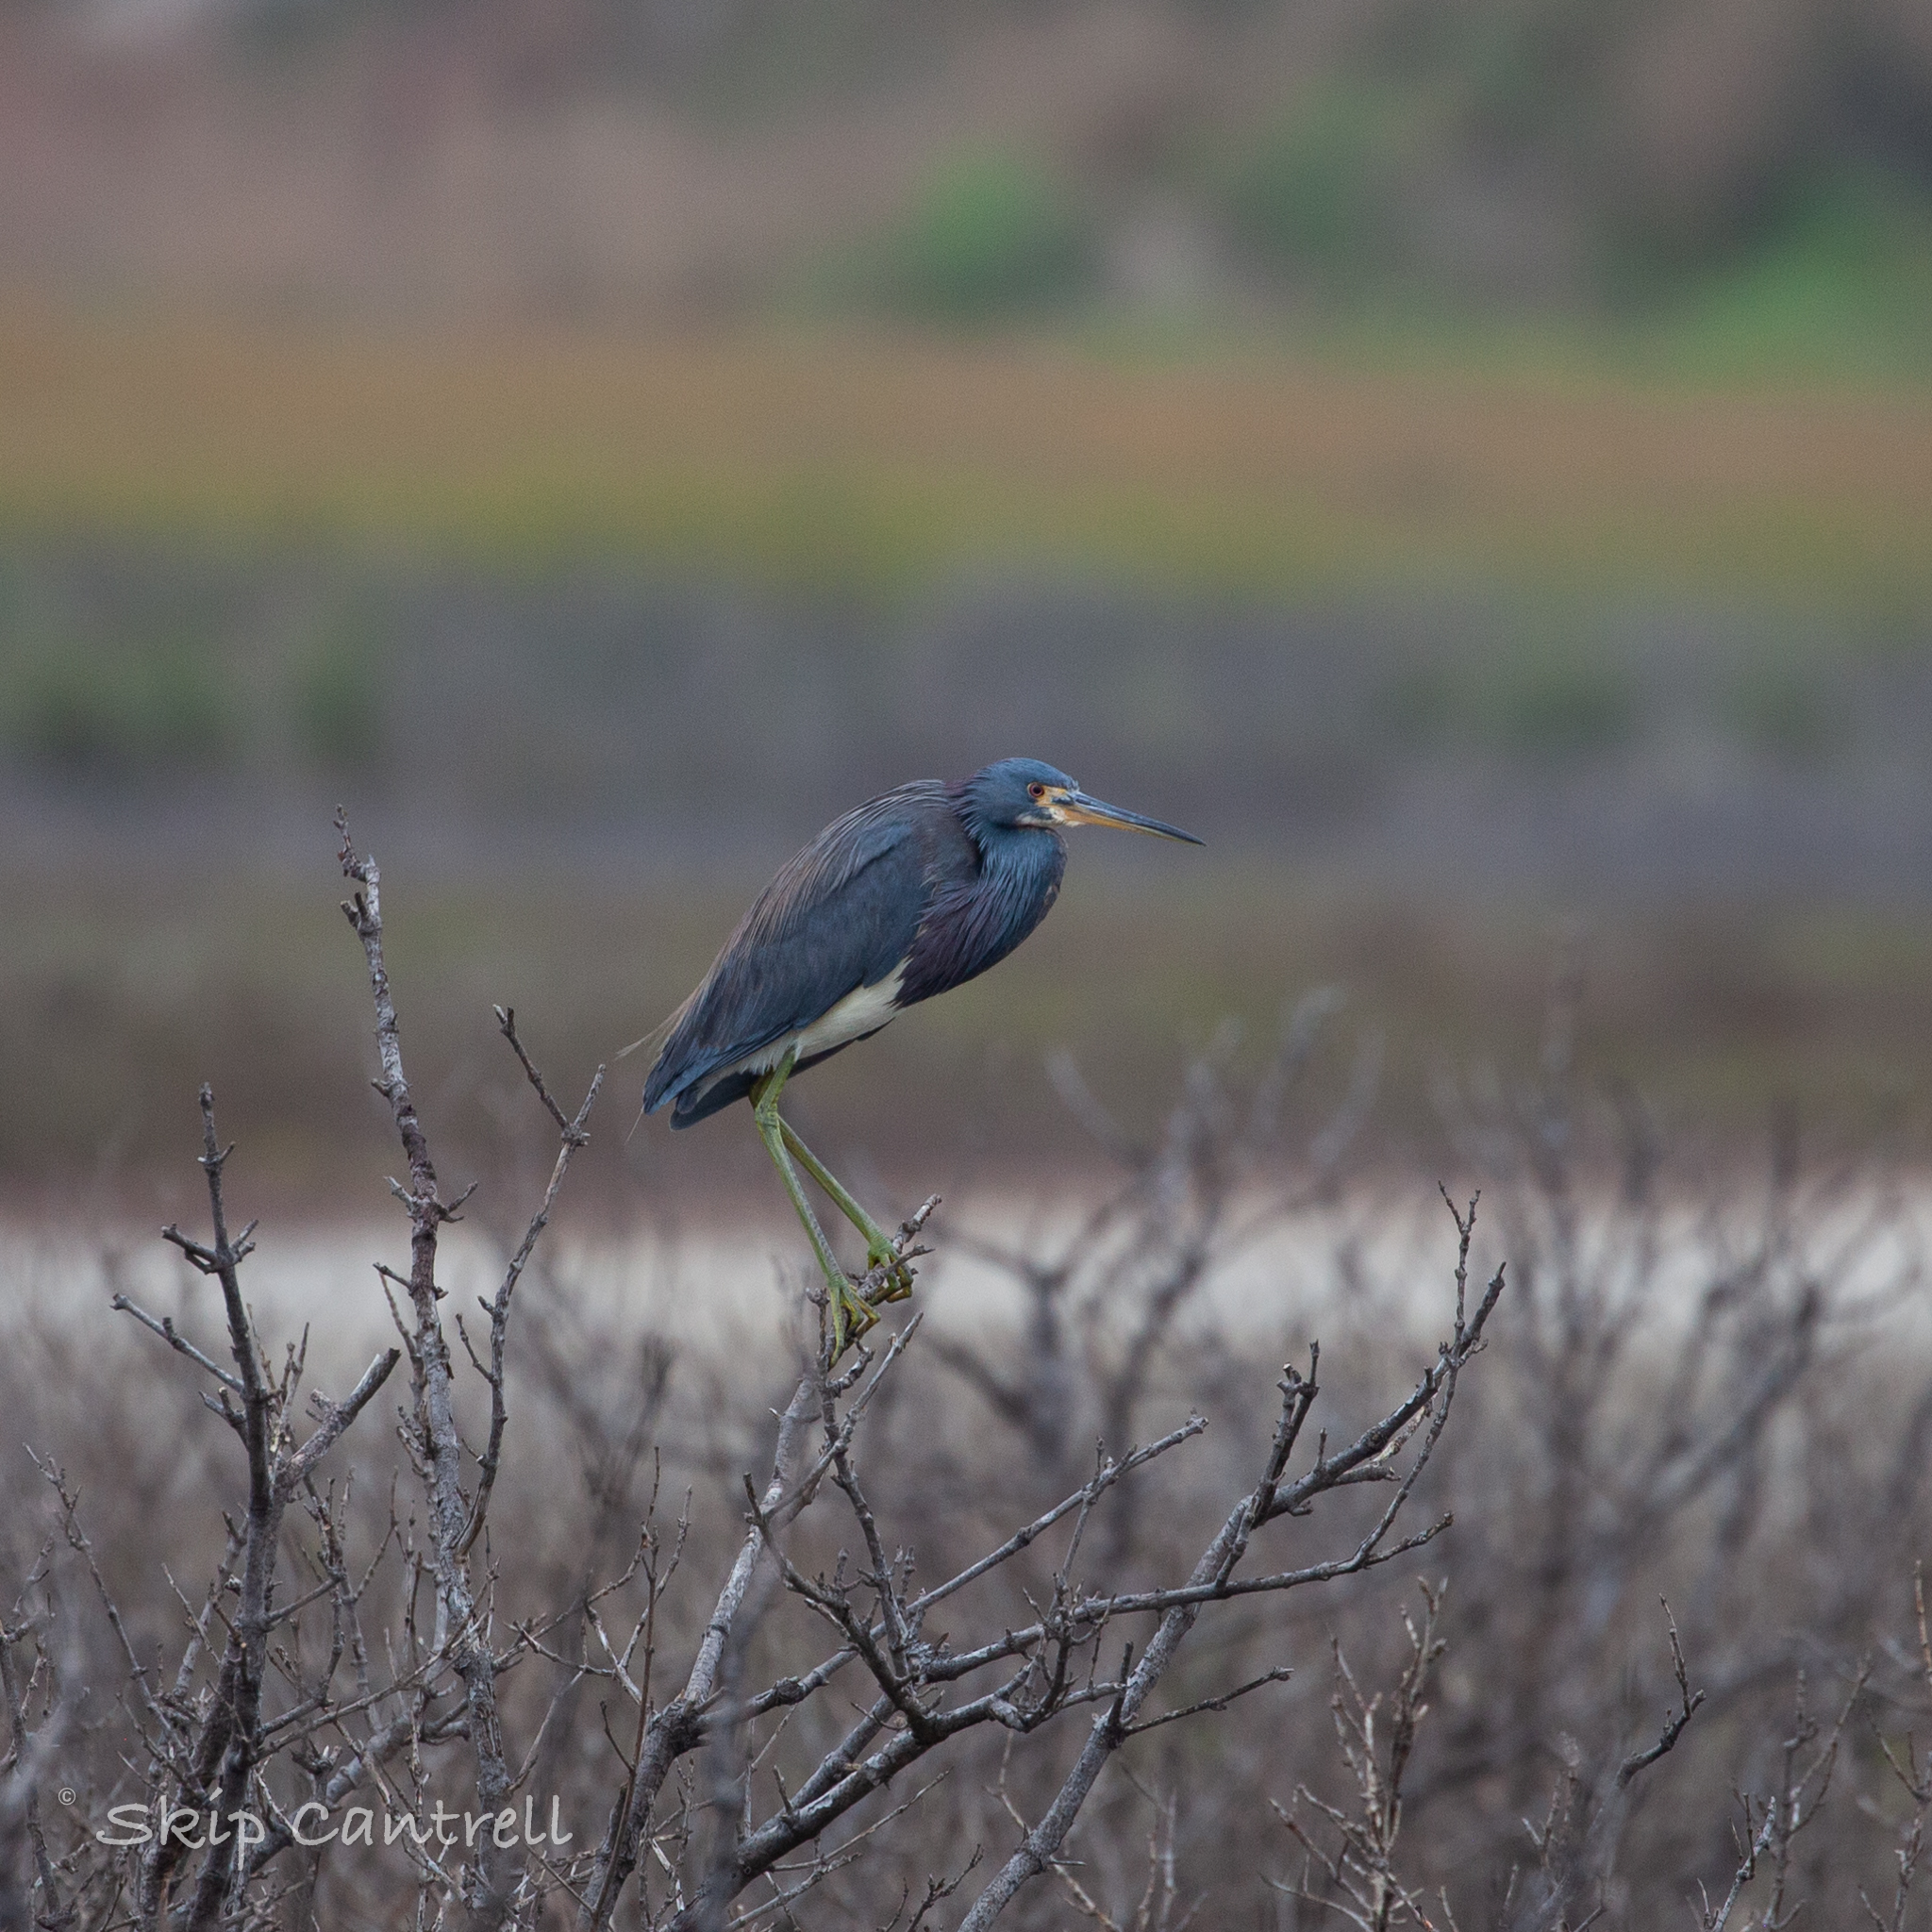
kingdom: Animalia
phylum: Chordata
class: Aves
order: Pelecaniformes
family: Ardeidae
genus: Egretta
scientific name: Egretta tricolor
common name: Tricolored heron
